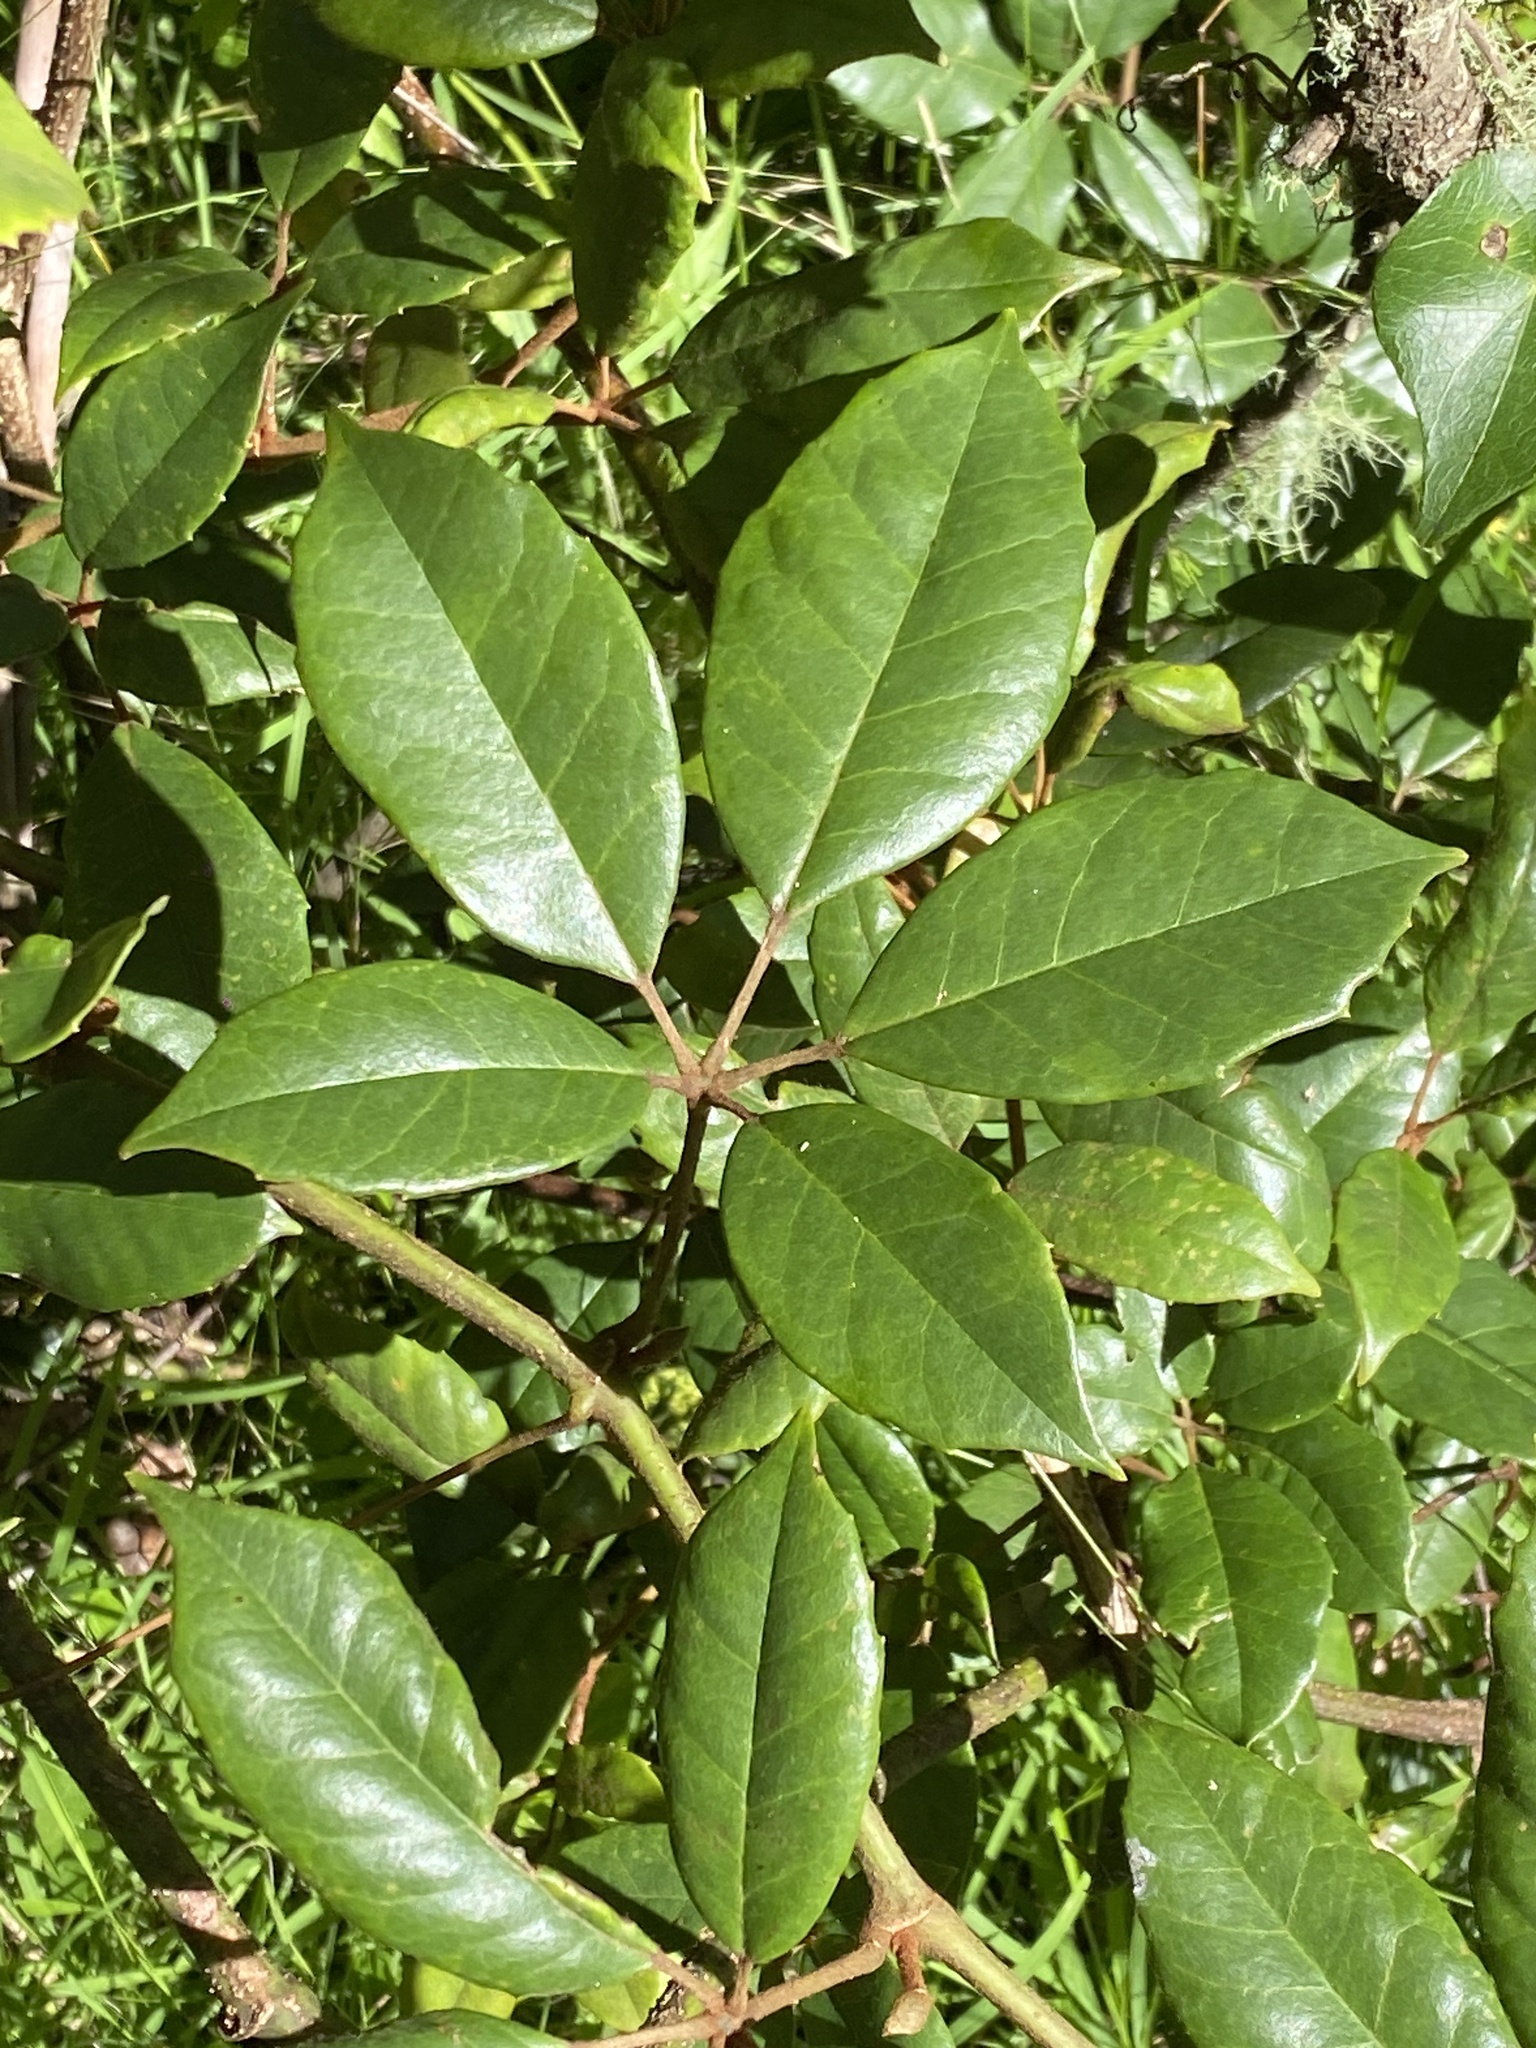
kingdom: Plantae
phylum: Tracheophyta
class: Magnoliopsida
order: Vitales
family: Vitaceae
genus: Nothocissus
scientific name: Nothocissus hypoglauca
